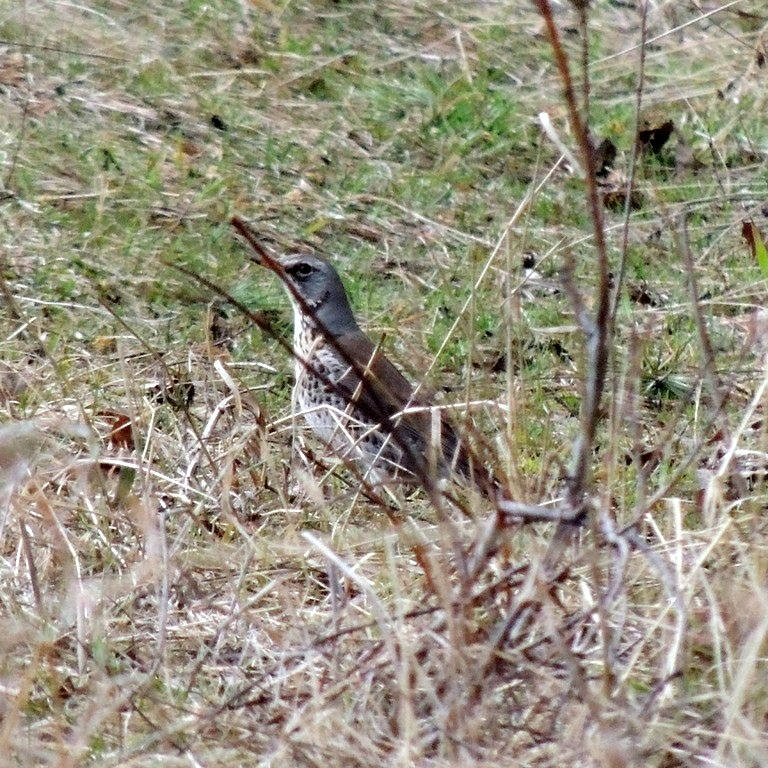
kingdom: Animalia
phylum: Chordata
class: Aves
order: Passeriformes
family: Turdidae
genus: Turdus
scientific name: Turdus pilaris
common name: Fieldfare
